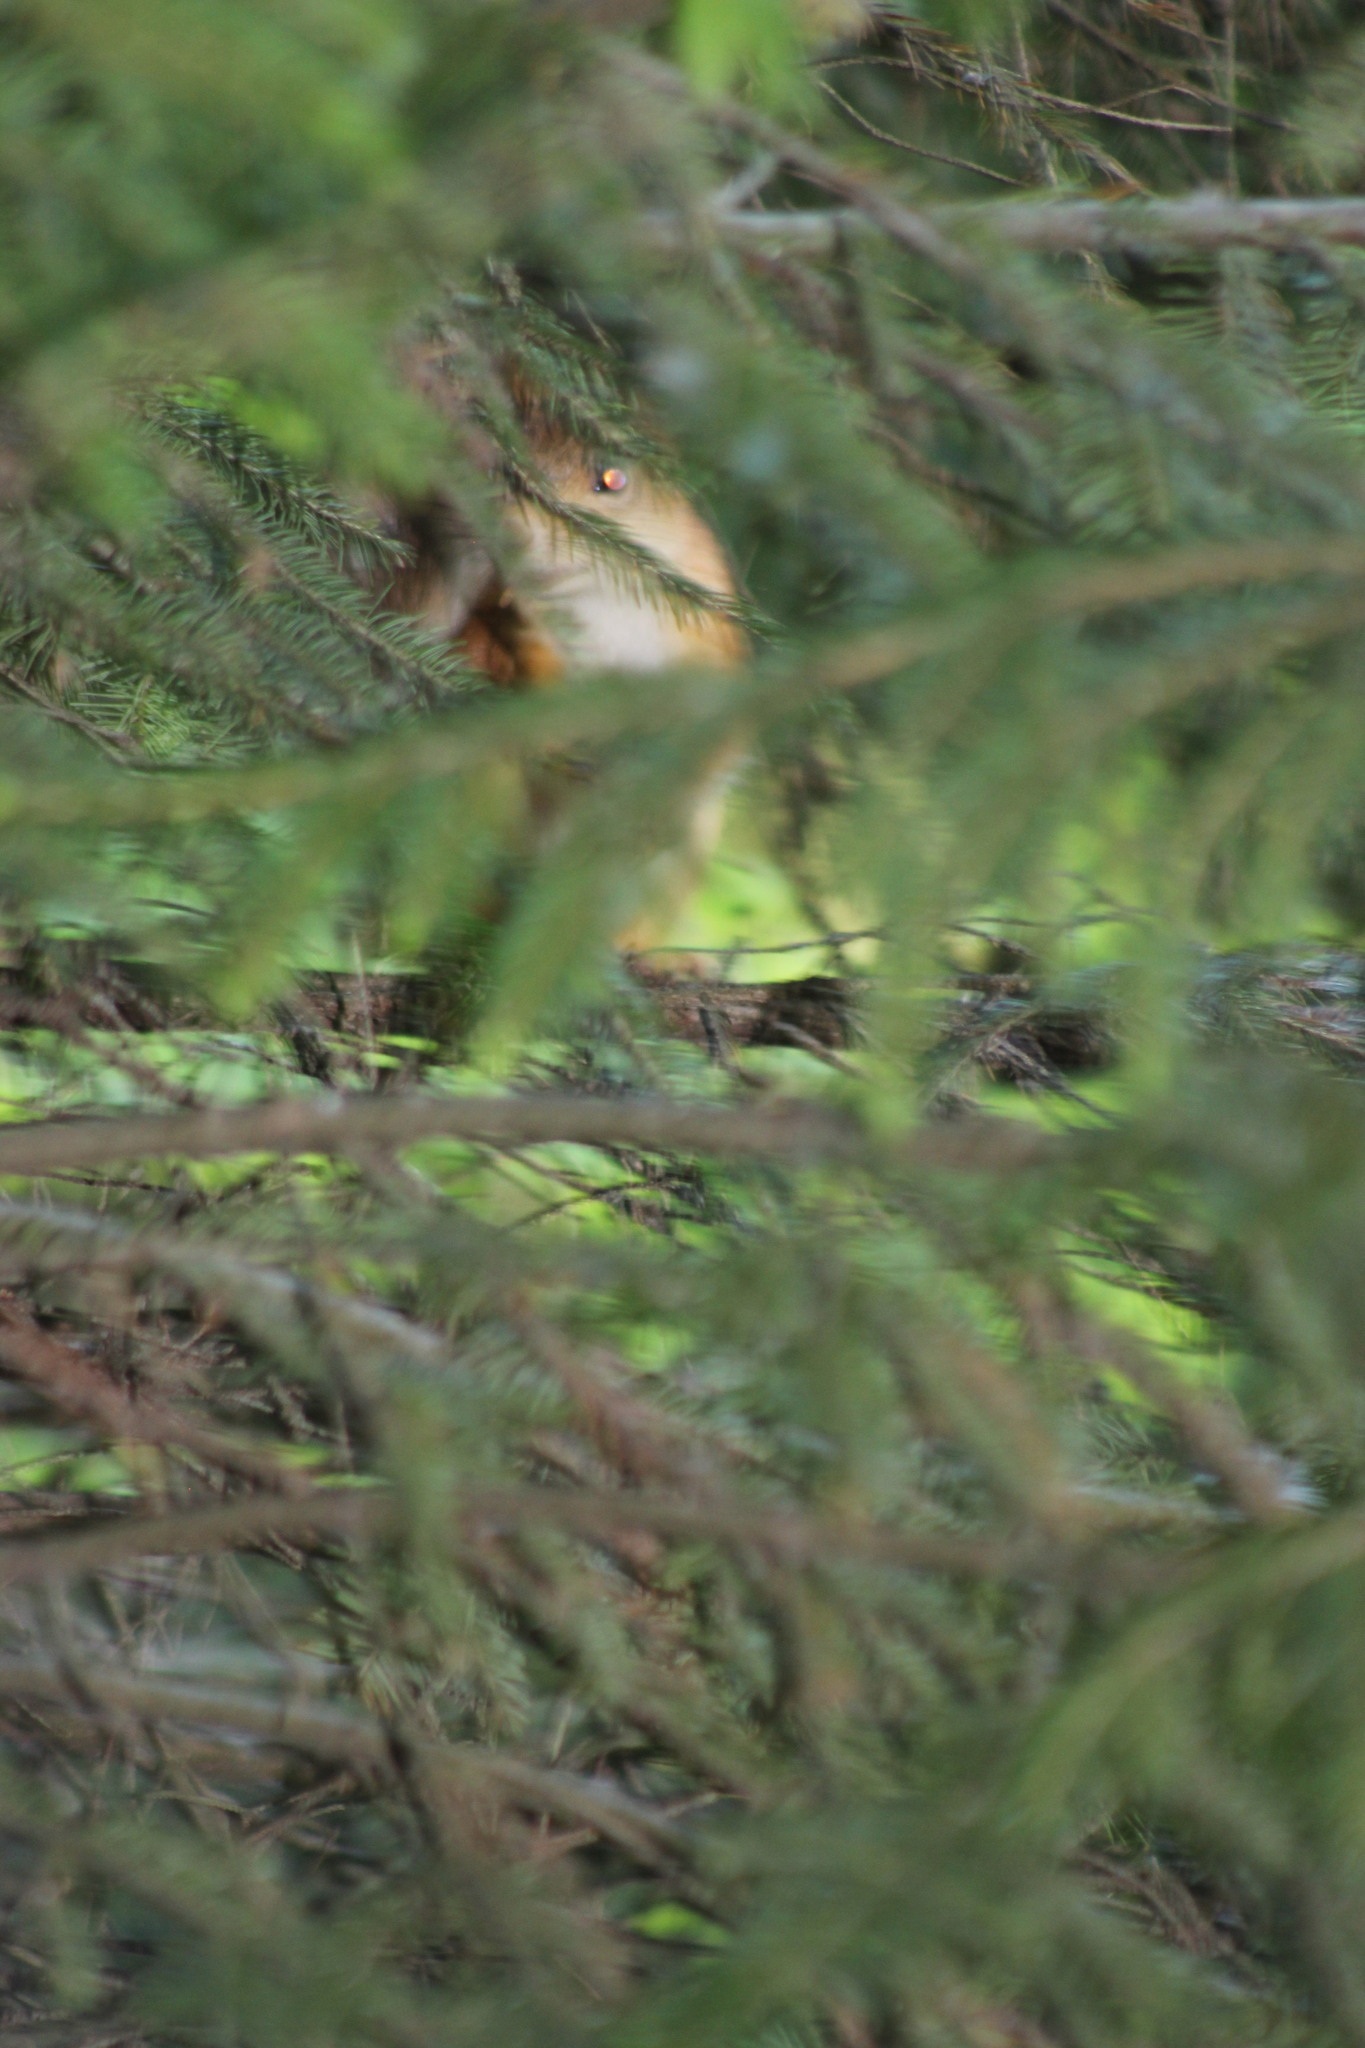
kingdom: Animalia
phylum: Chordata
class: Mammalia
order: Rodentia
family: Sciuridae
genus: Sciurus
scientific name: Sciurus vulgaris
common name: Eurasian red squirrel
